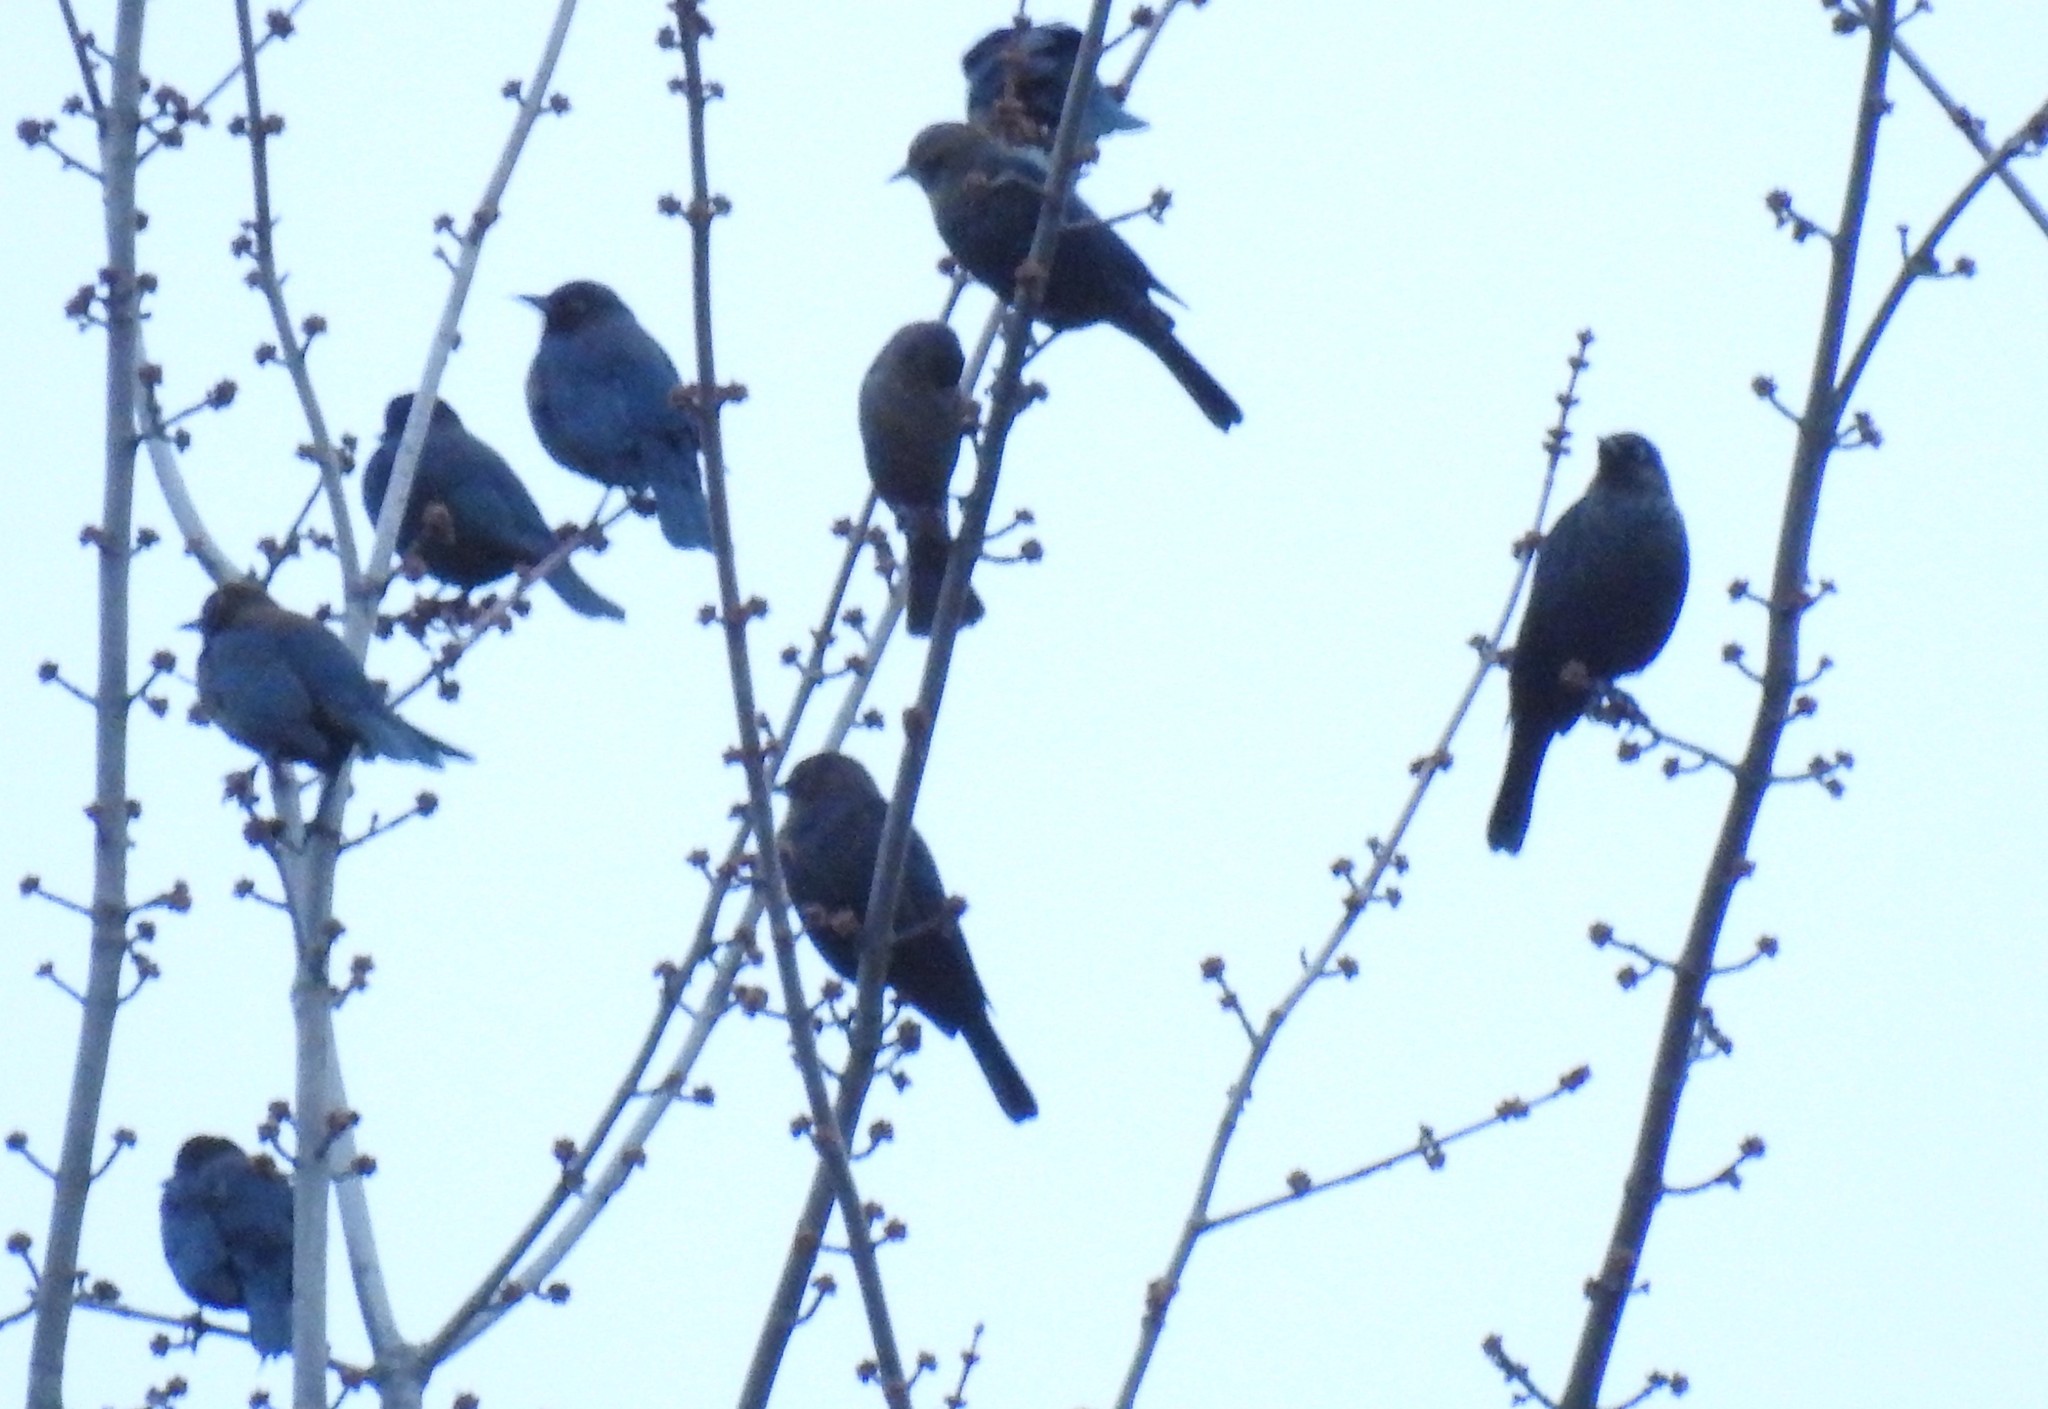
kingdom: Animalia
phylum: Chordata
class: Aves
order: Passeriformes
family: Icteridae
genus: Euphagus
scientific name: Euphagus carolinus
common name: Rusty blackbird
